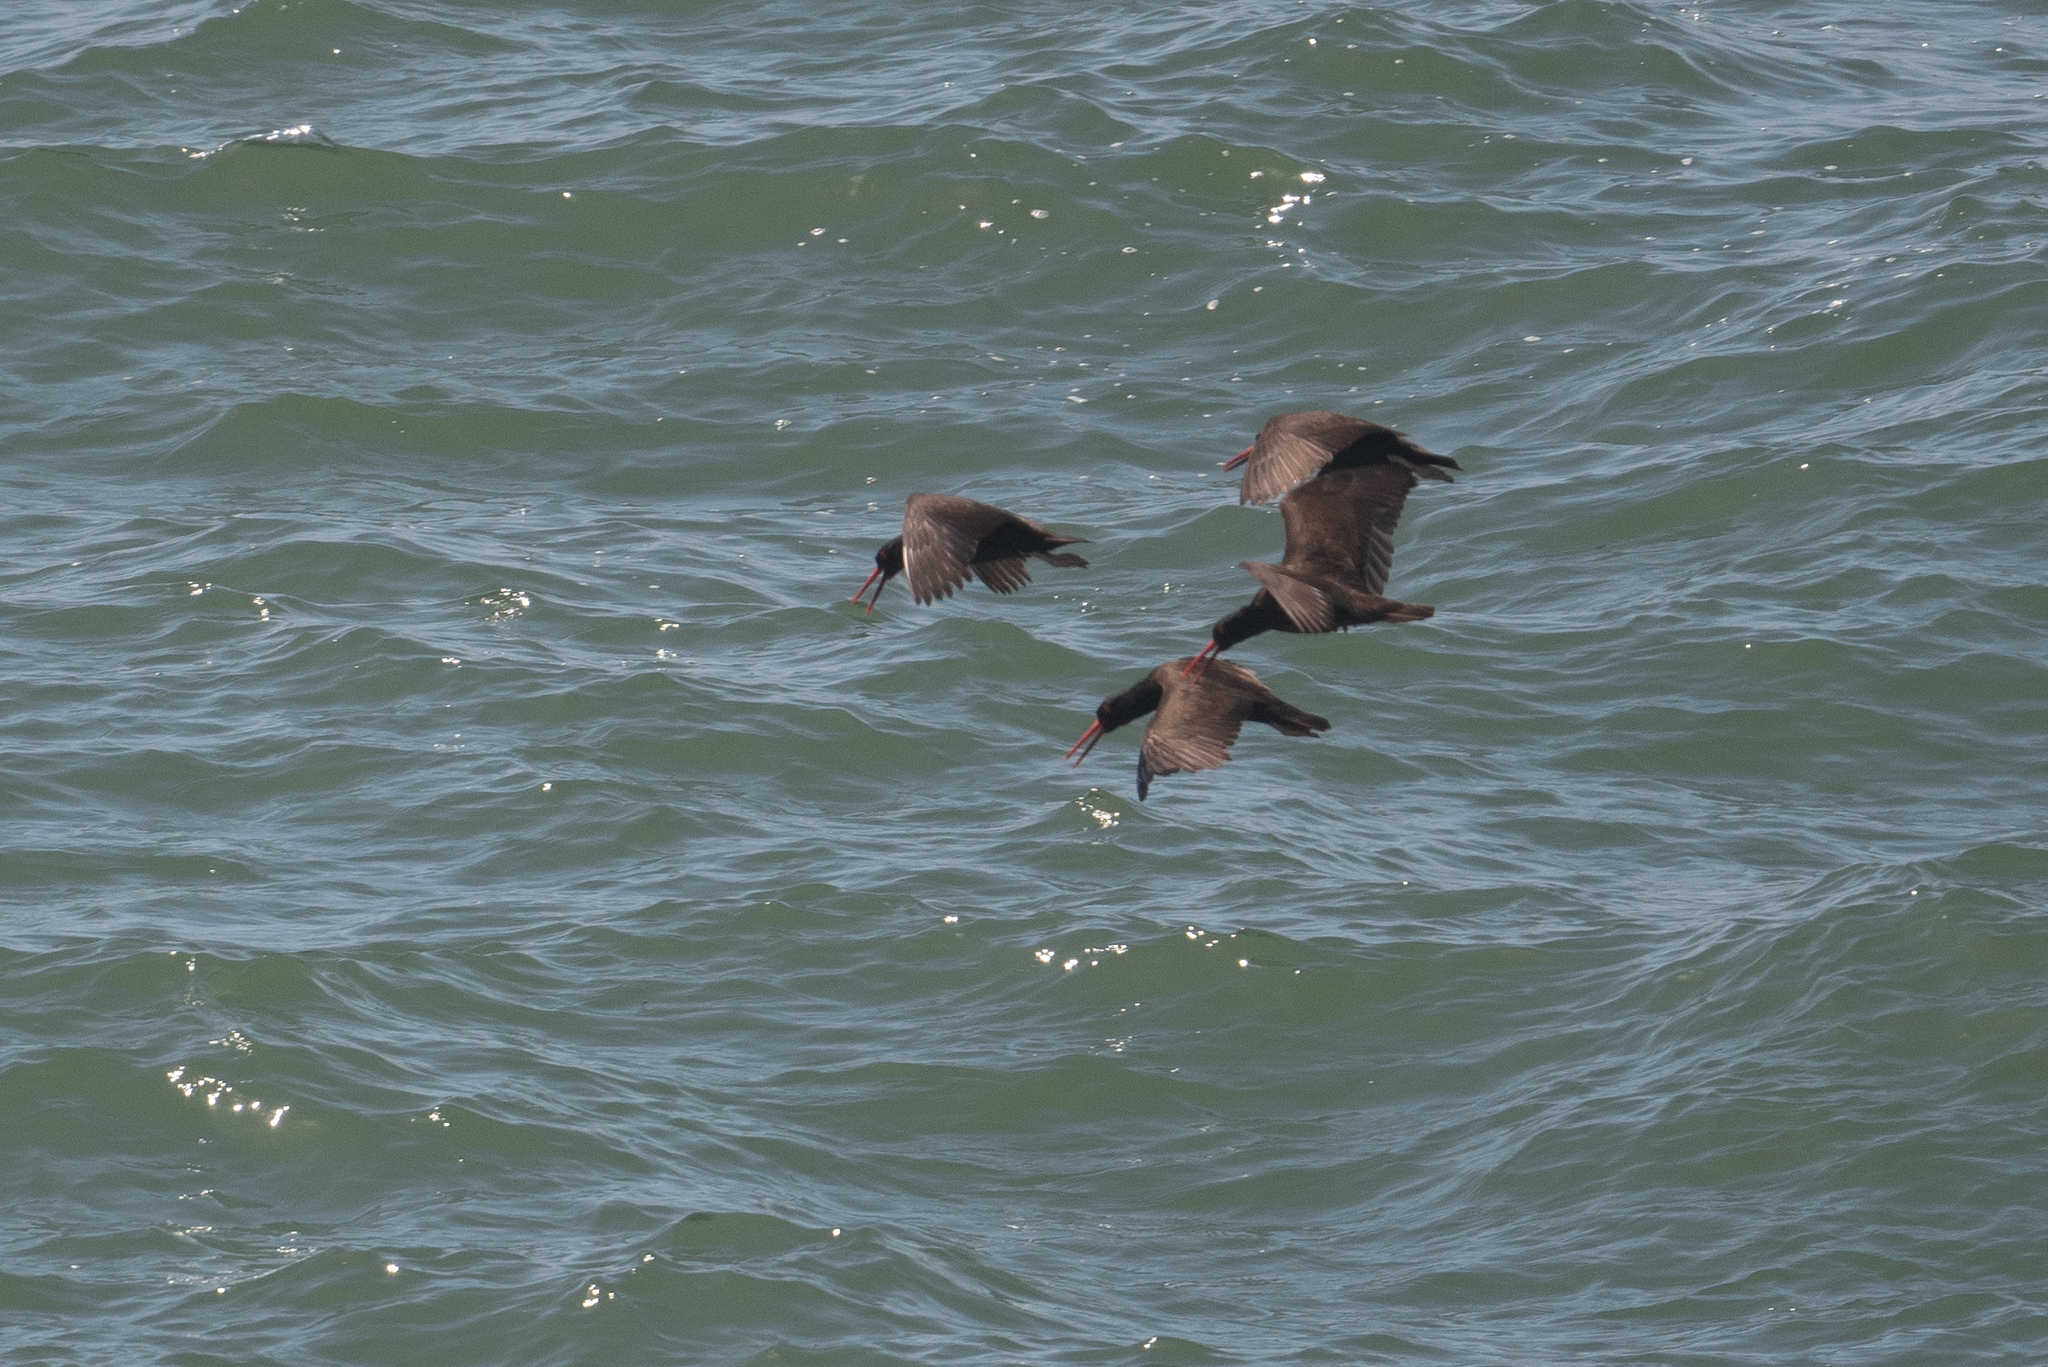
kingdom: Animalia
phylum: Chordata
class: Aves
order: Charadriiformes
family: Haematopodidae
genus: Haematopus
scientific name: Haematopus bachmani
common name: Black oystercatcher
